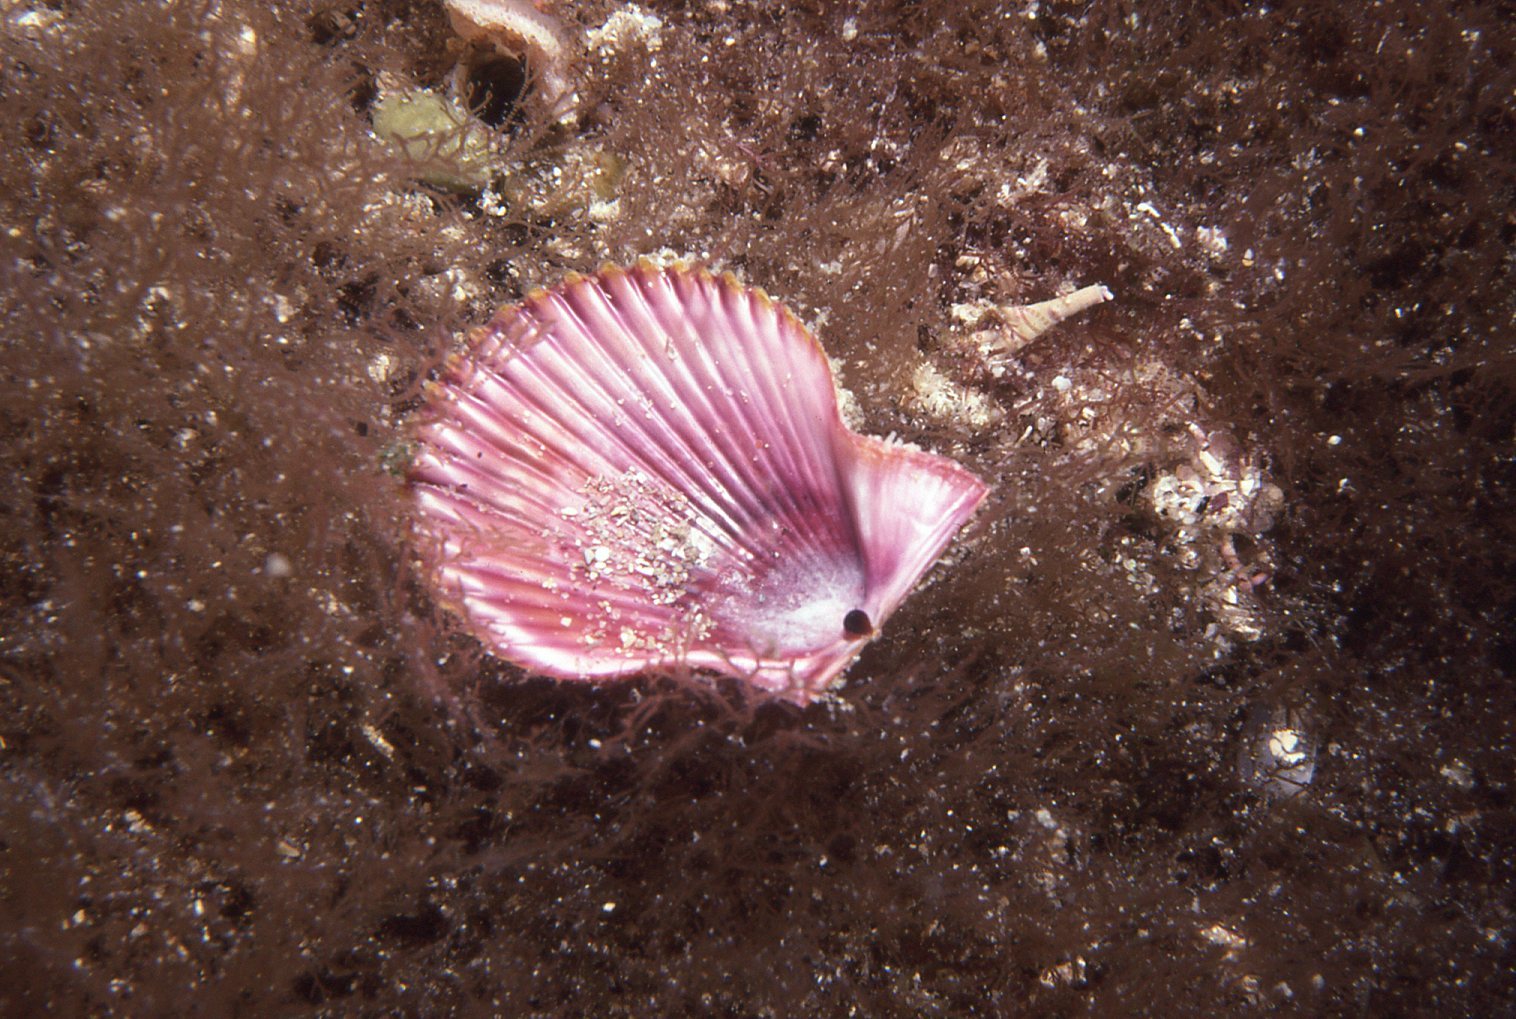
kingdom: Animalia
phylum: Mollusca
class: Bivalvia
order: Pectinida
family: Pectinidae
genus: Mimachlamys
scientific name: Mimachlamys asperrima
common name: Austral scallop
